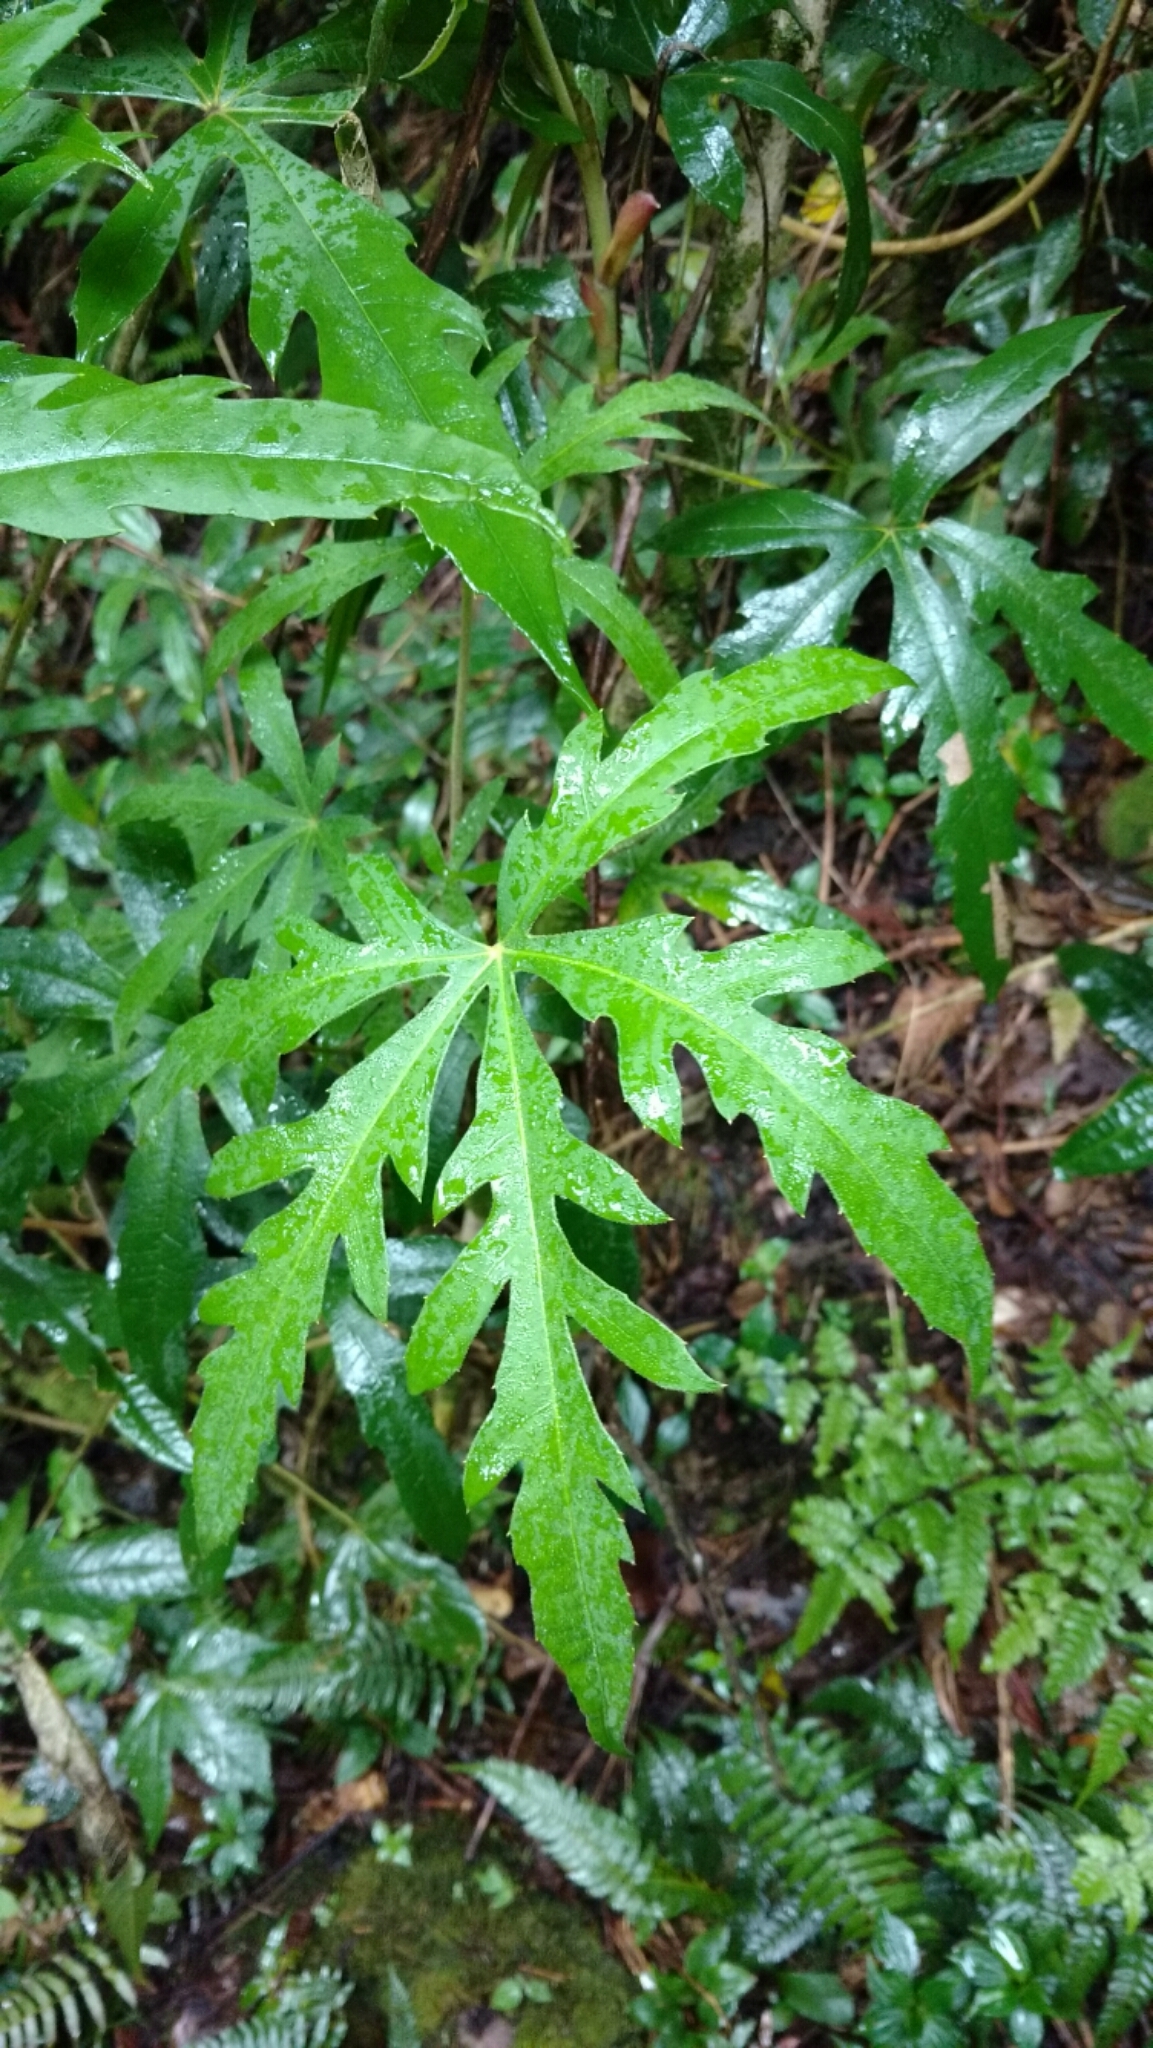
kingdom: Plantae
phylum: Tracheophyta
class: Magnoliopsida
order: Apiales
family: Araliaceae
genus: Oreopanax
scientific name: Oreopanax incisus
